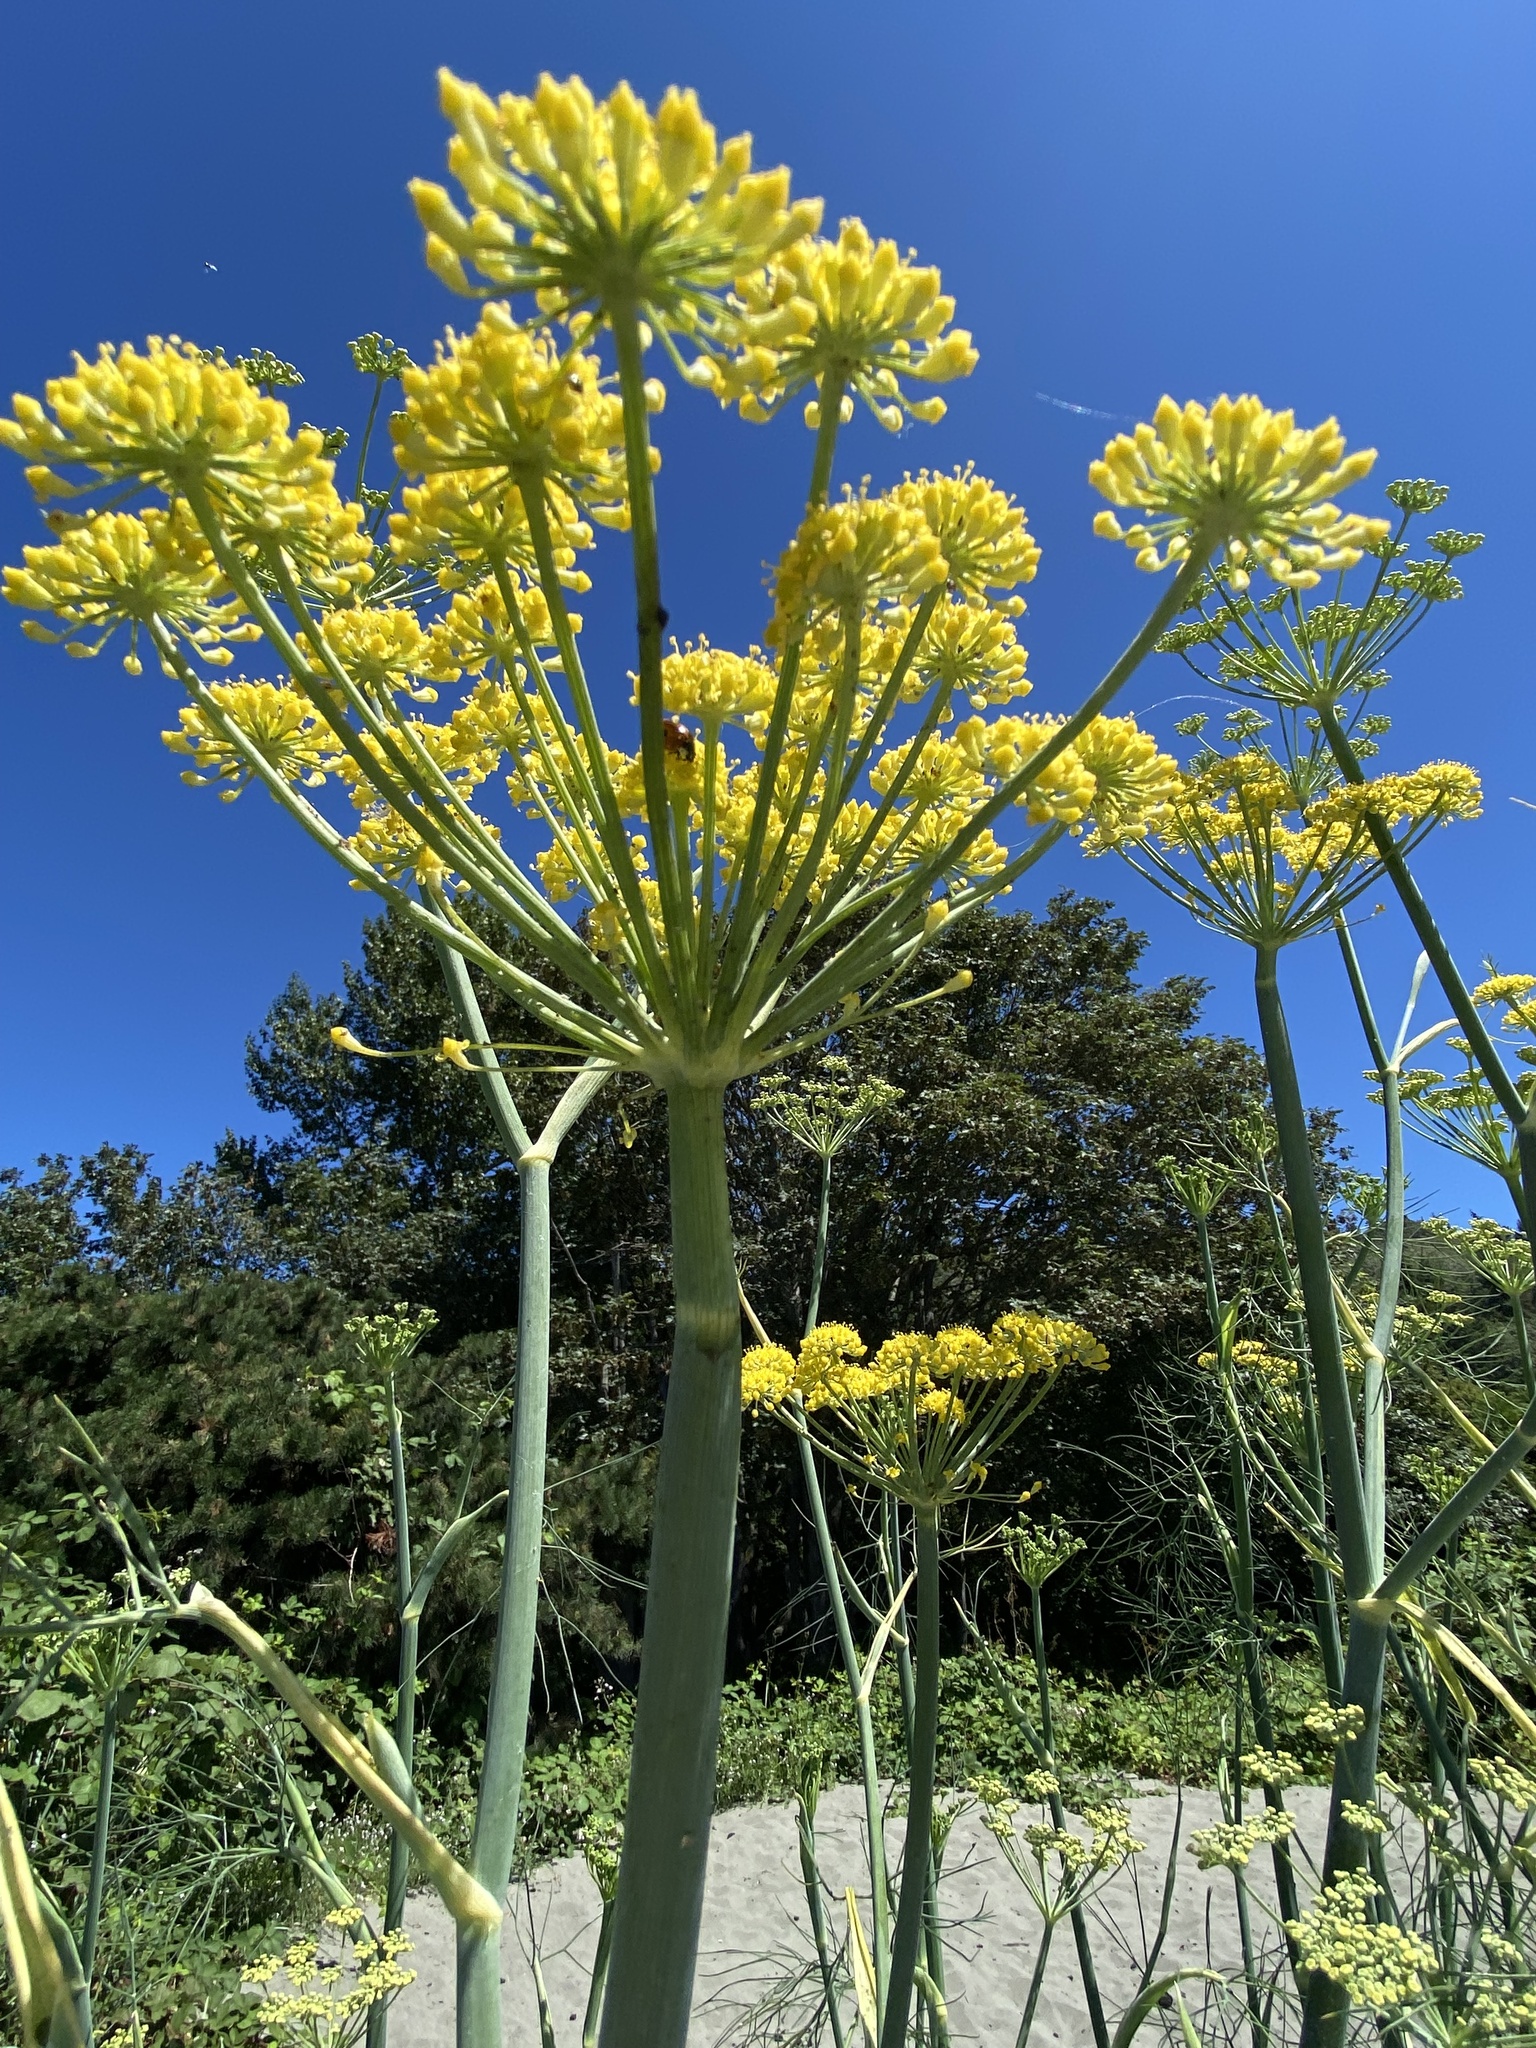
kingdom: Plantae
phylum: Tracheophyta
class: Magnoliopsida
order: Apiales
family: Apiaceae
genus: Foeniculum
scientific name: Foeniculum vulgare
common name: Fennel
